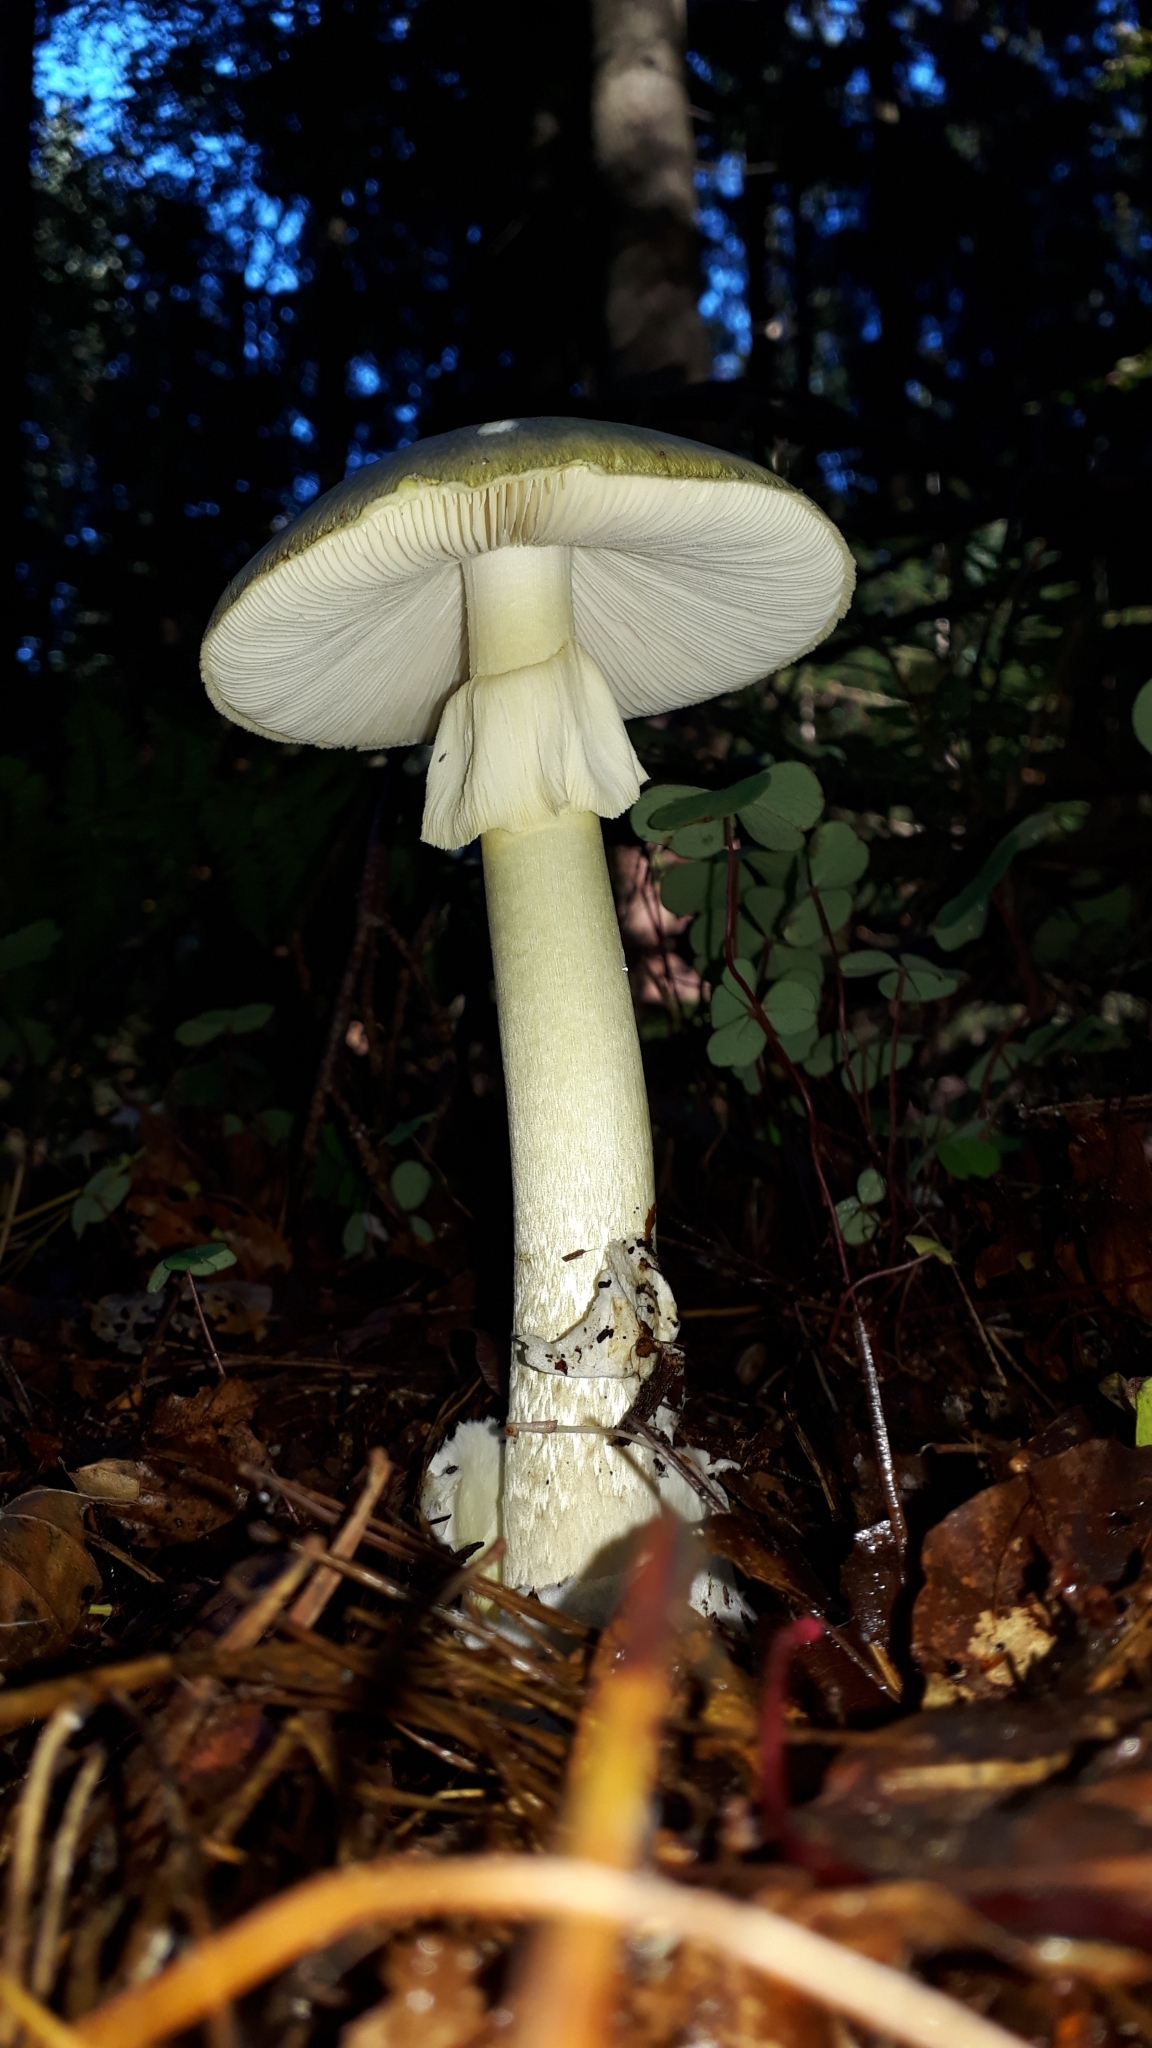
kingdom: Fungi
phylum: Basidiomycota
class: Agaricomycetes
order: Agaricales
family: Amanitaceae
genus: Amanita
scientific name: Amanita phalloides
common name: Death cap
